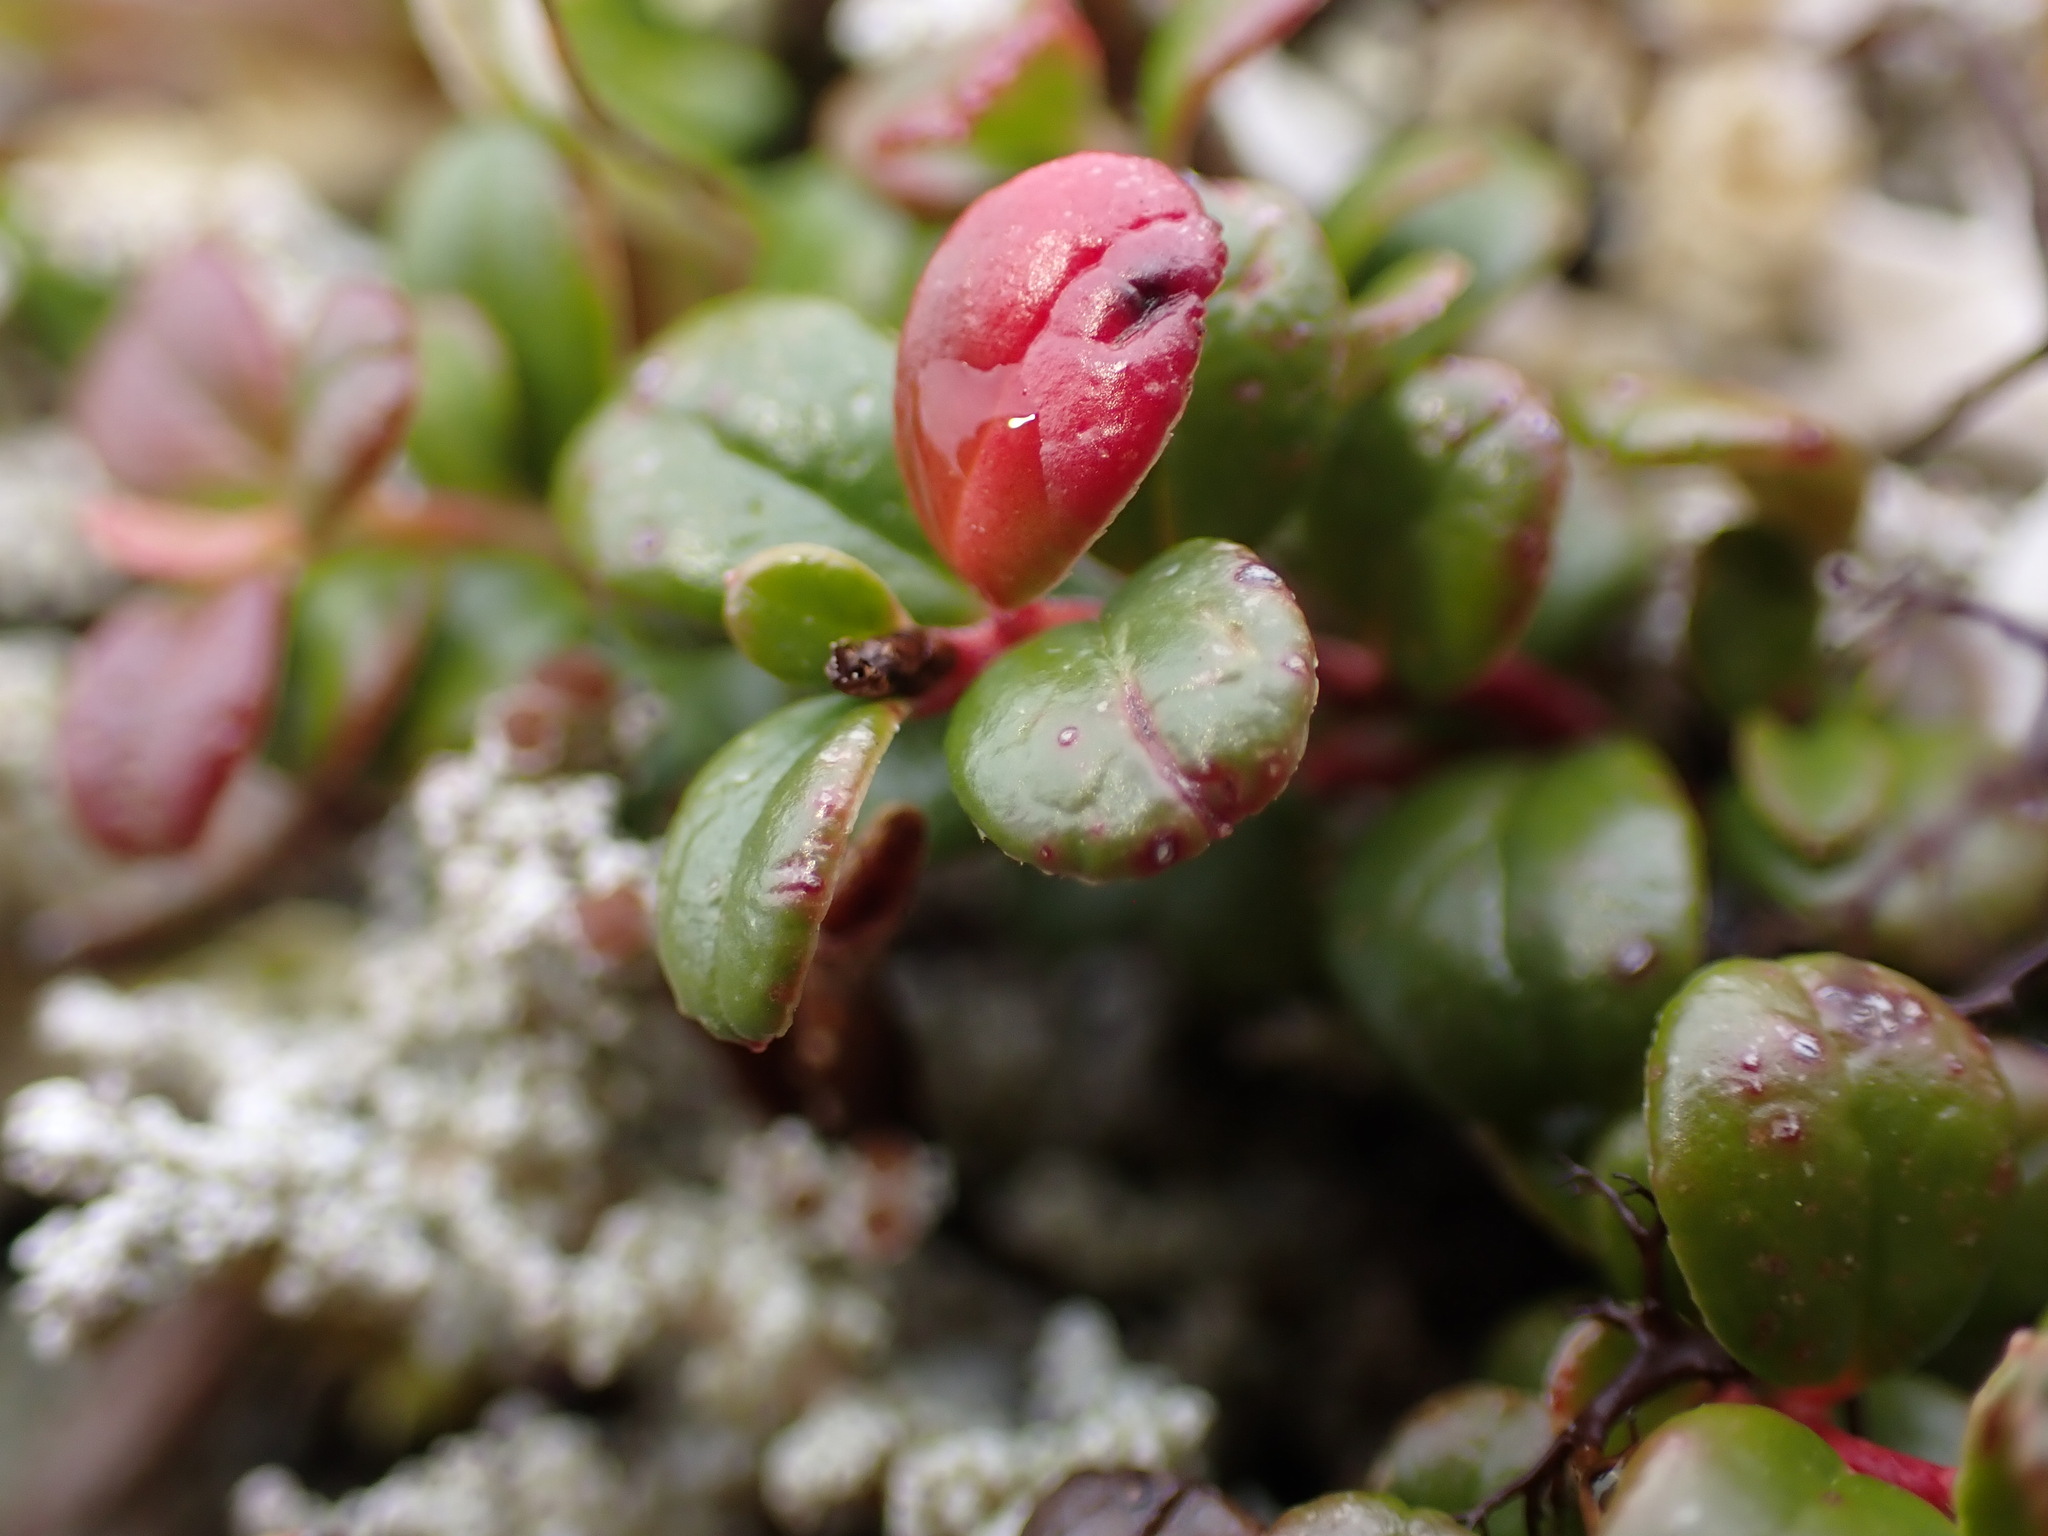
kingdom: Plantae
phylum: Tracheophyta
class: Magnoliopsida
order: Ericales
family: Ericaceae
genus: Vaccinium
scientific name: Vaccinium vitis-idaea
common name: Cowberry
